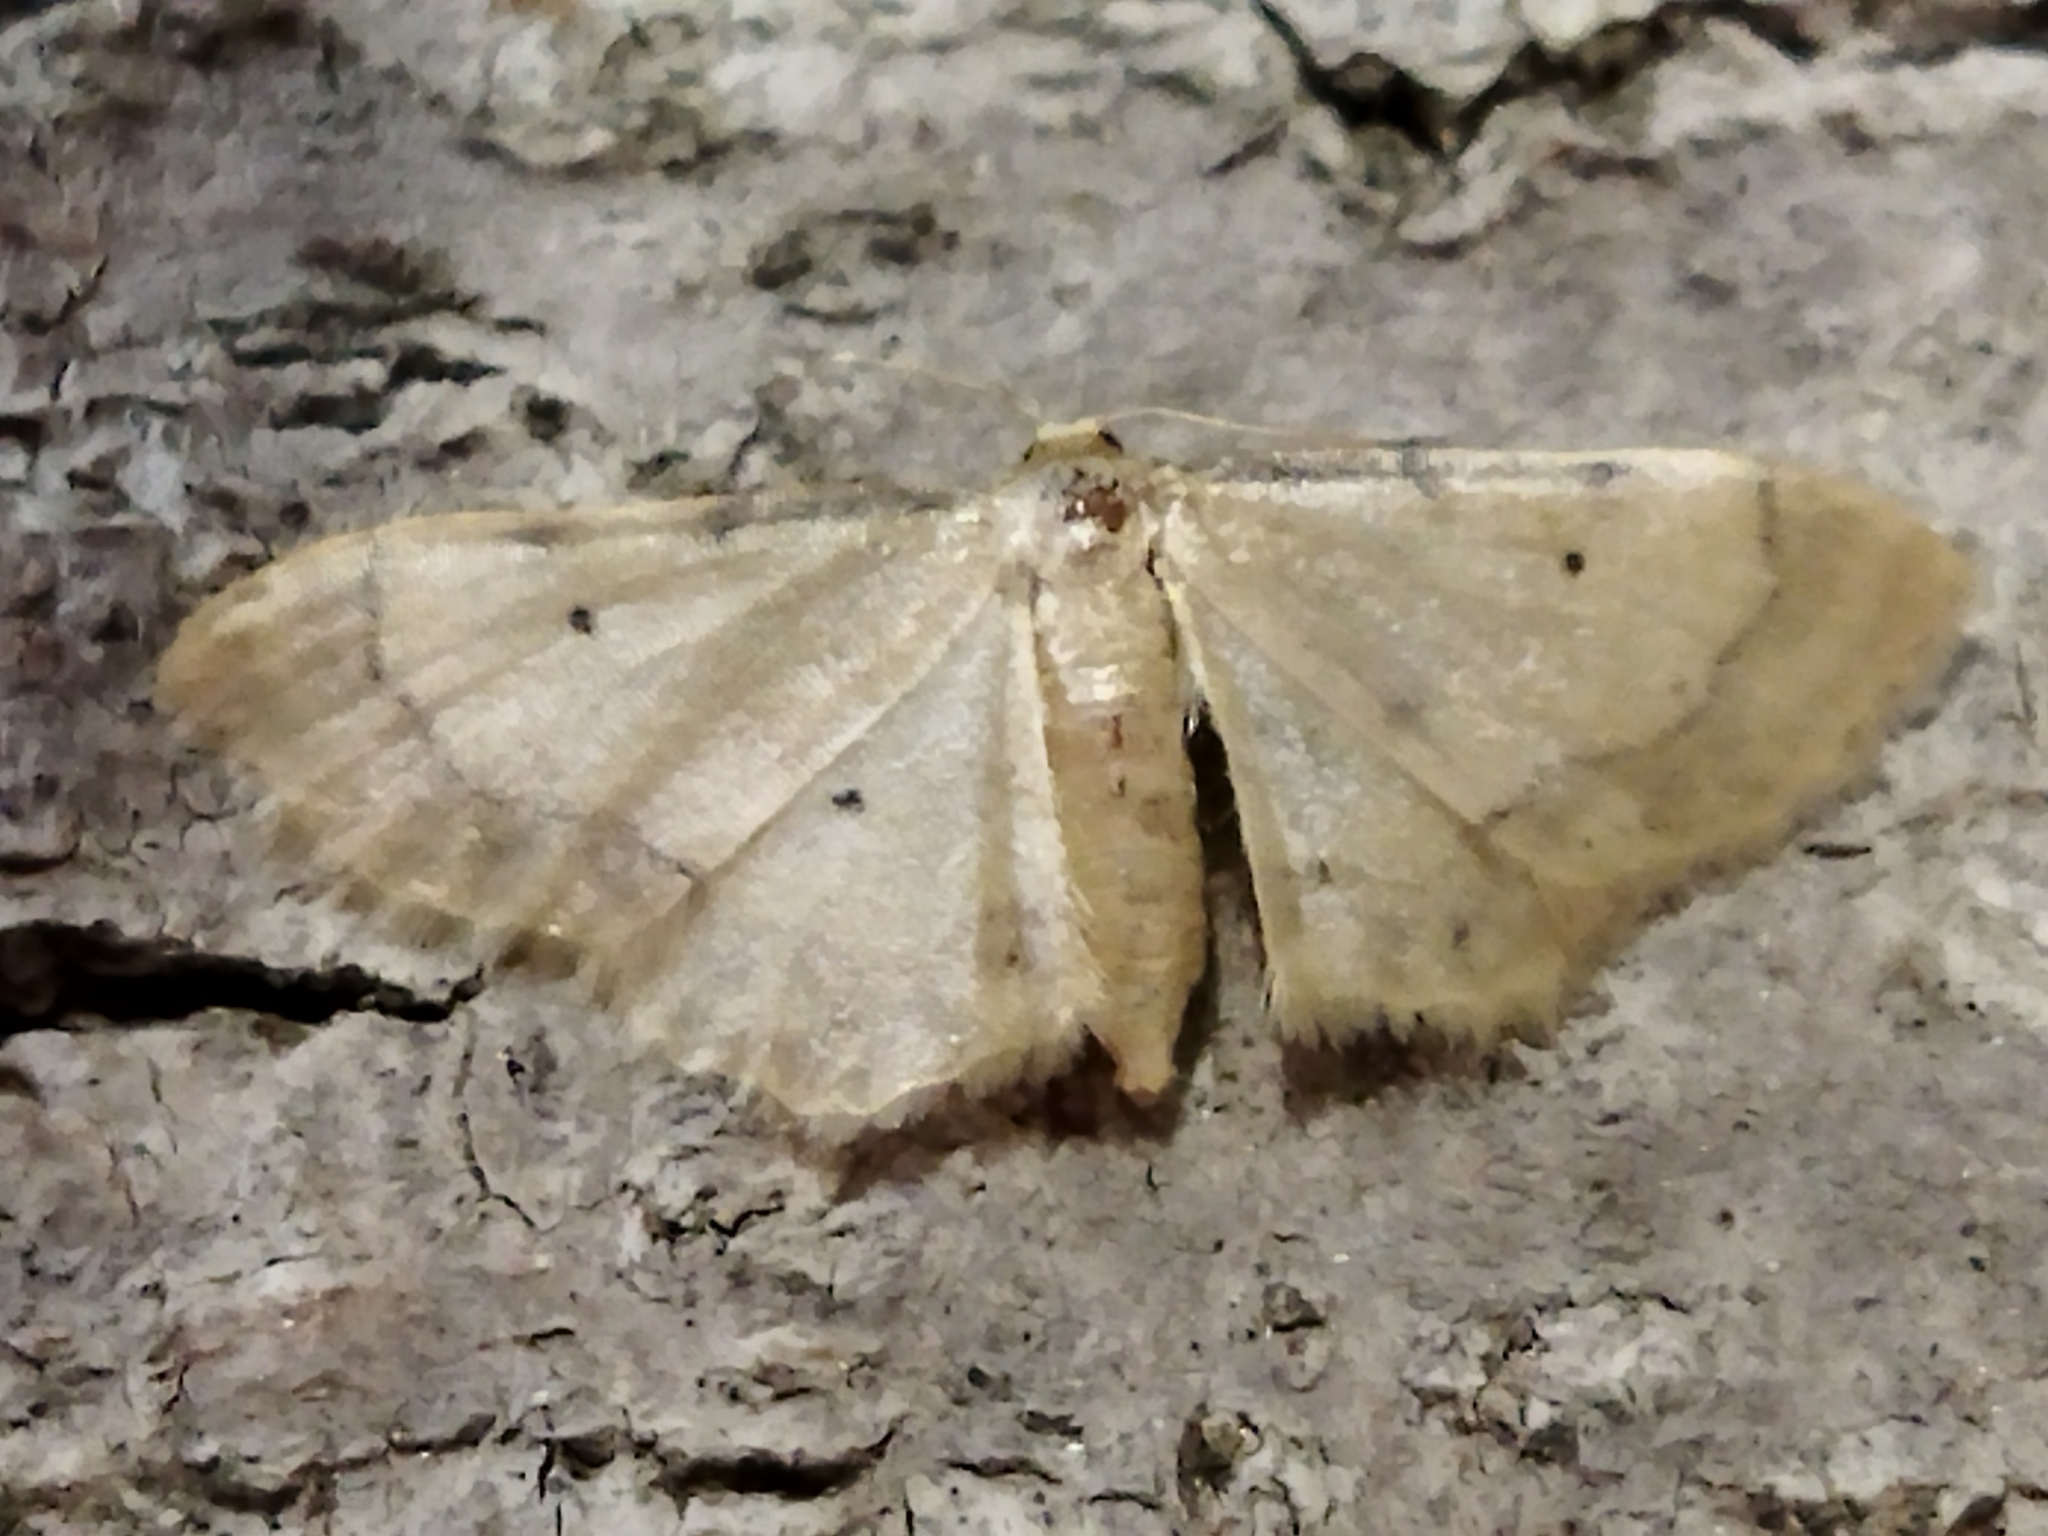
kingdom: Animalia
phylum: Arthropoda
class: Insecta
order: Lepidoptera
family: Geometridae
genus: Idaea
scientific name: Idaea politaria
